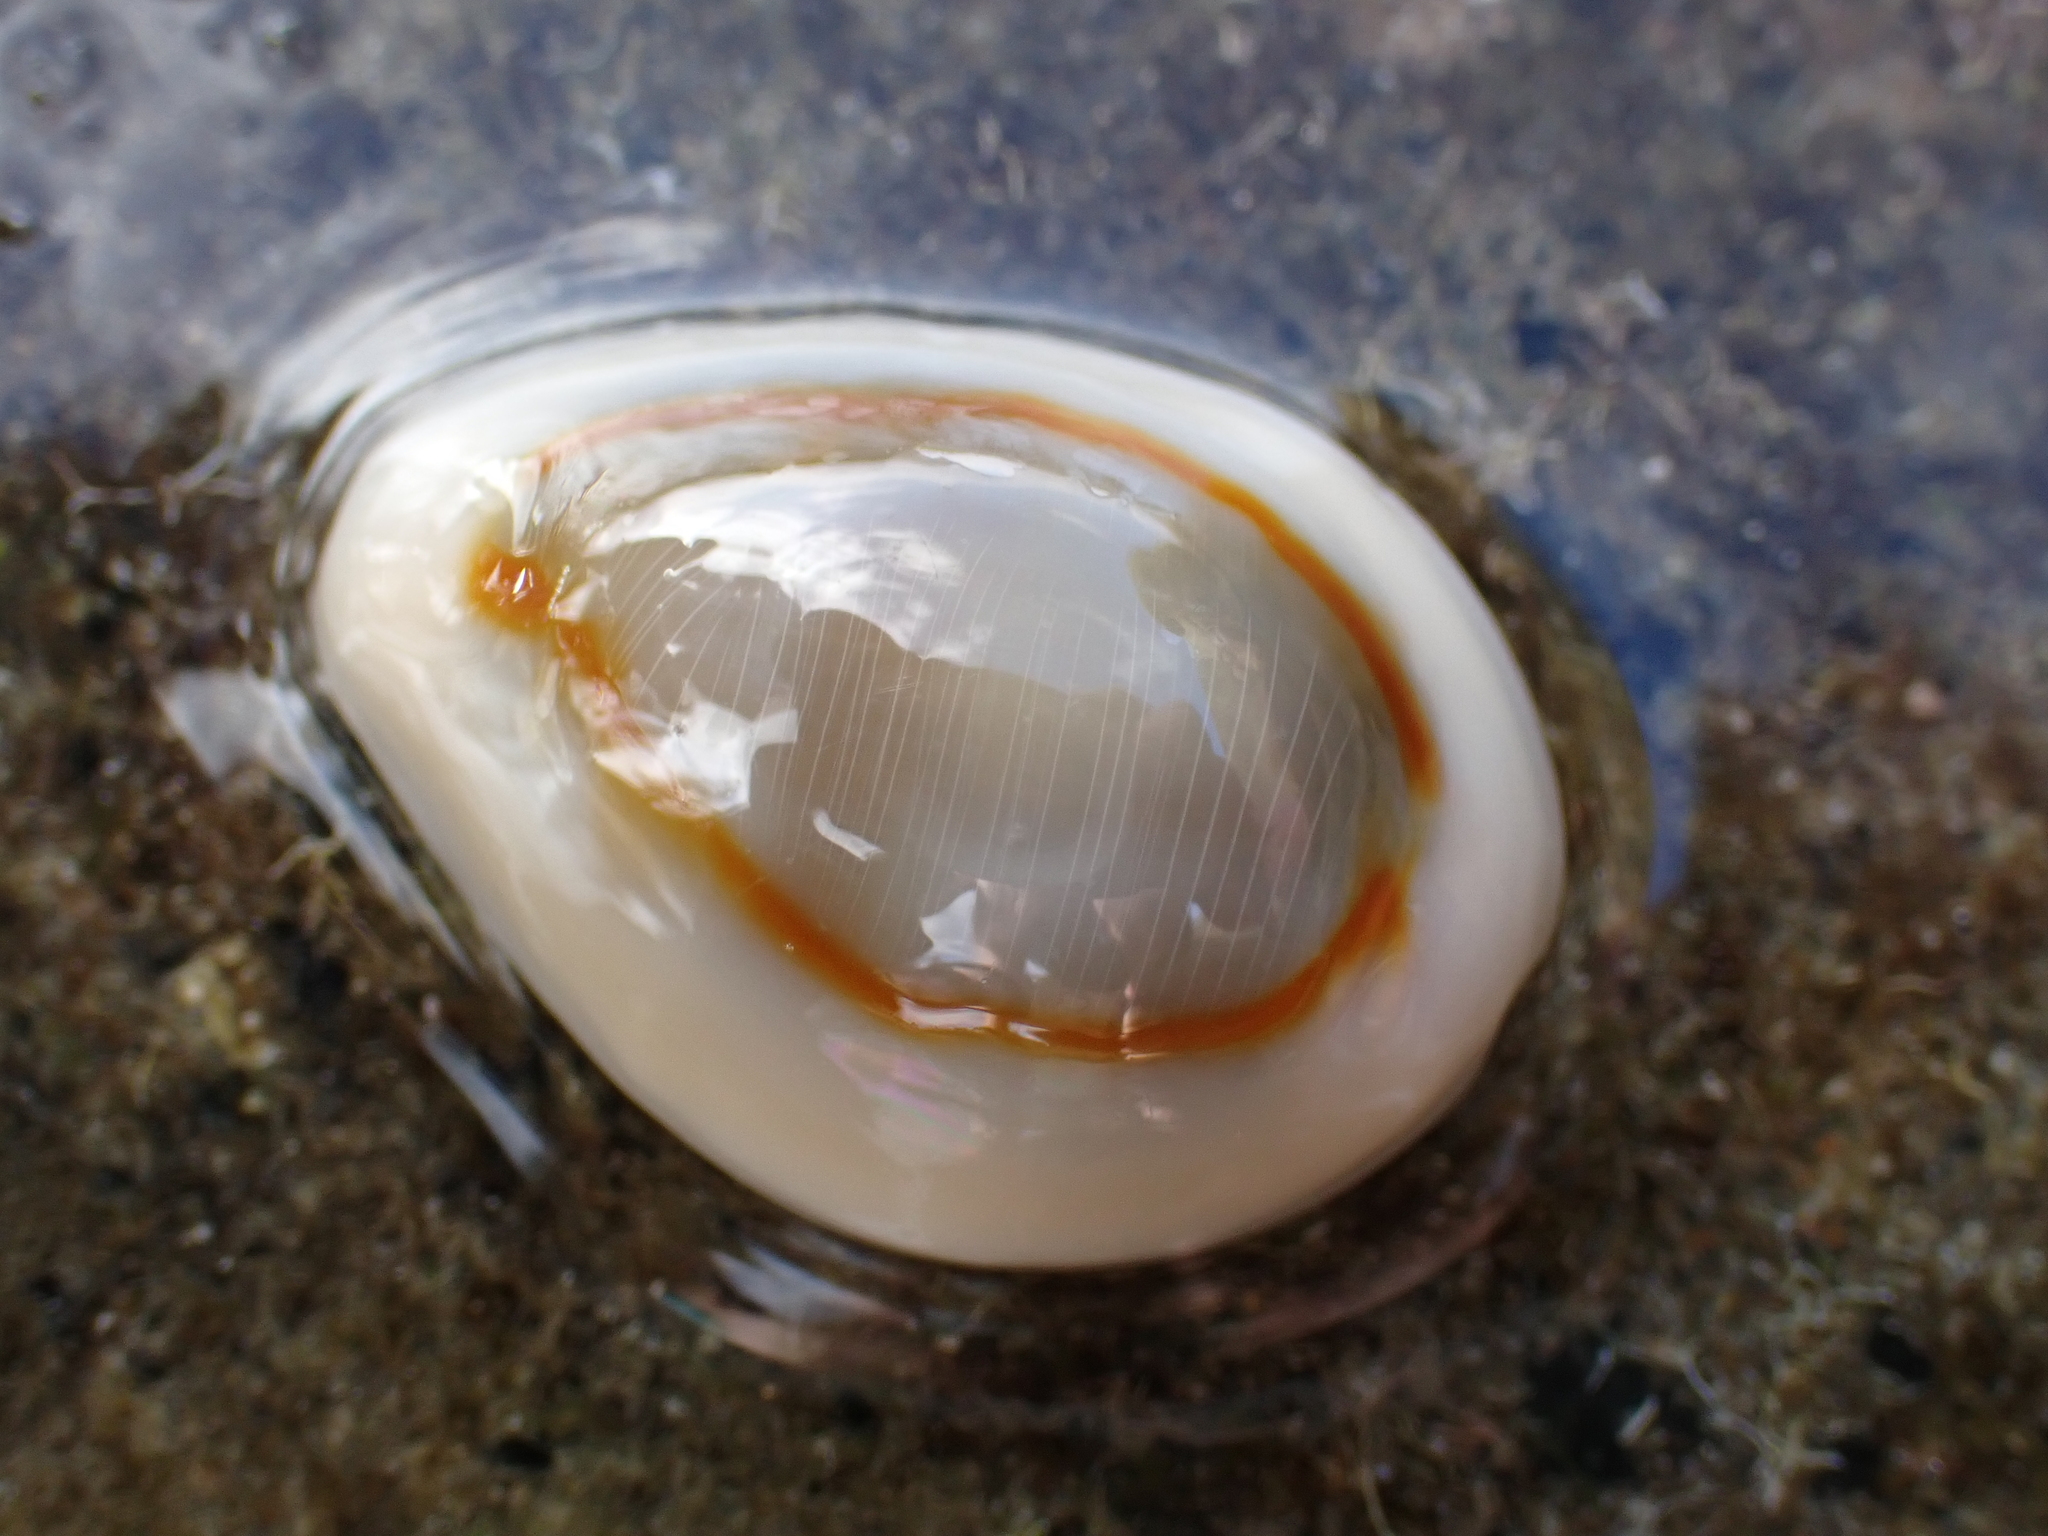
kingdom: Animalia
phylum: Mollusca
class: Gastropoda
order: Littorinimorpha
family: Cypraeidae
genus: Monetaria
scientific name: Monetaria annulus
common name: Ring cowrie
